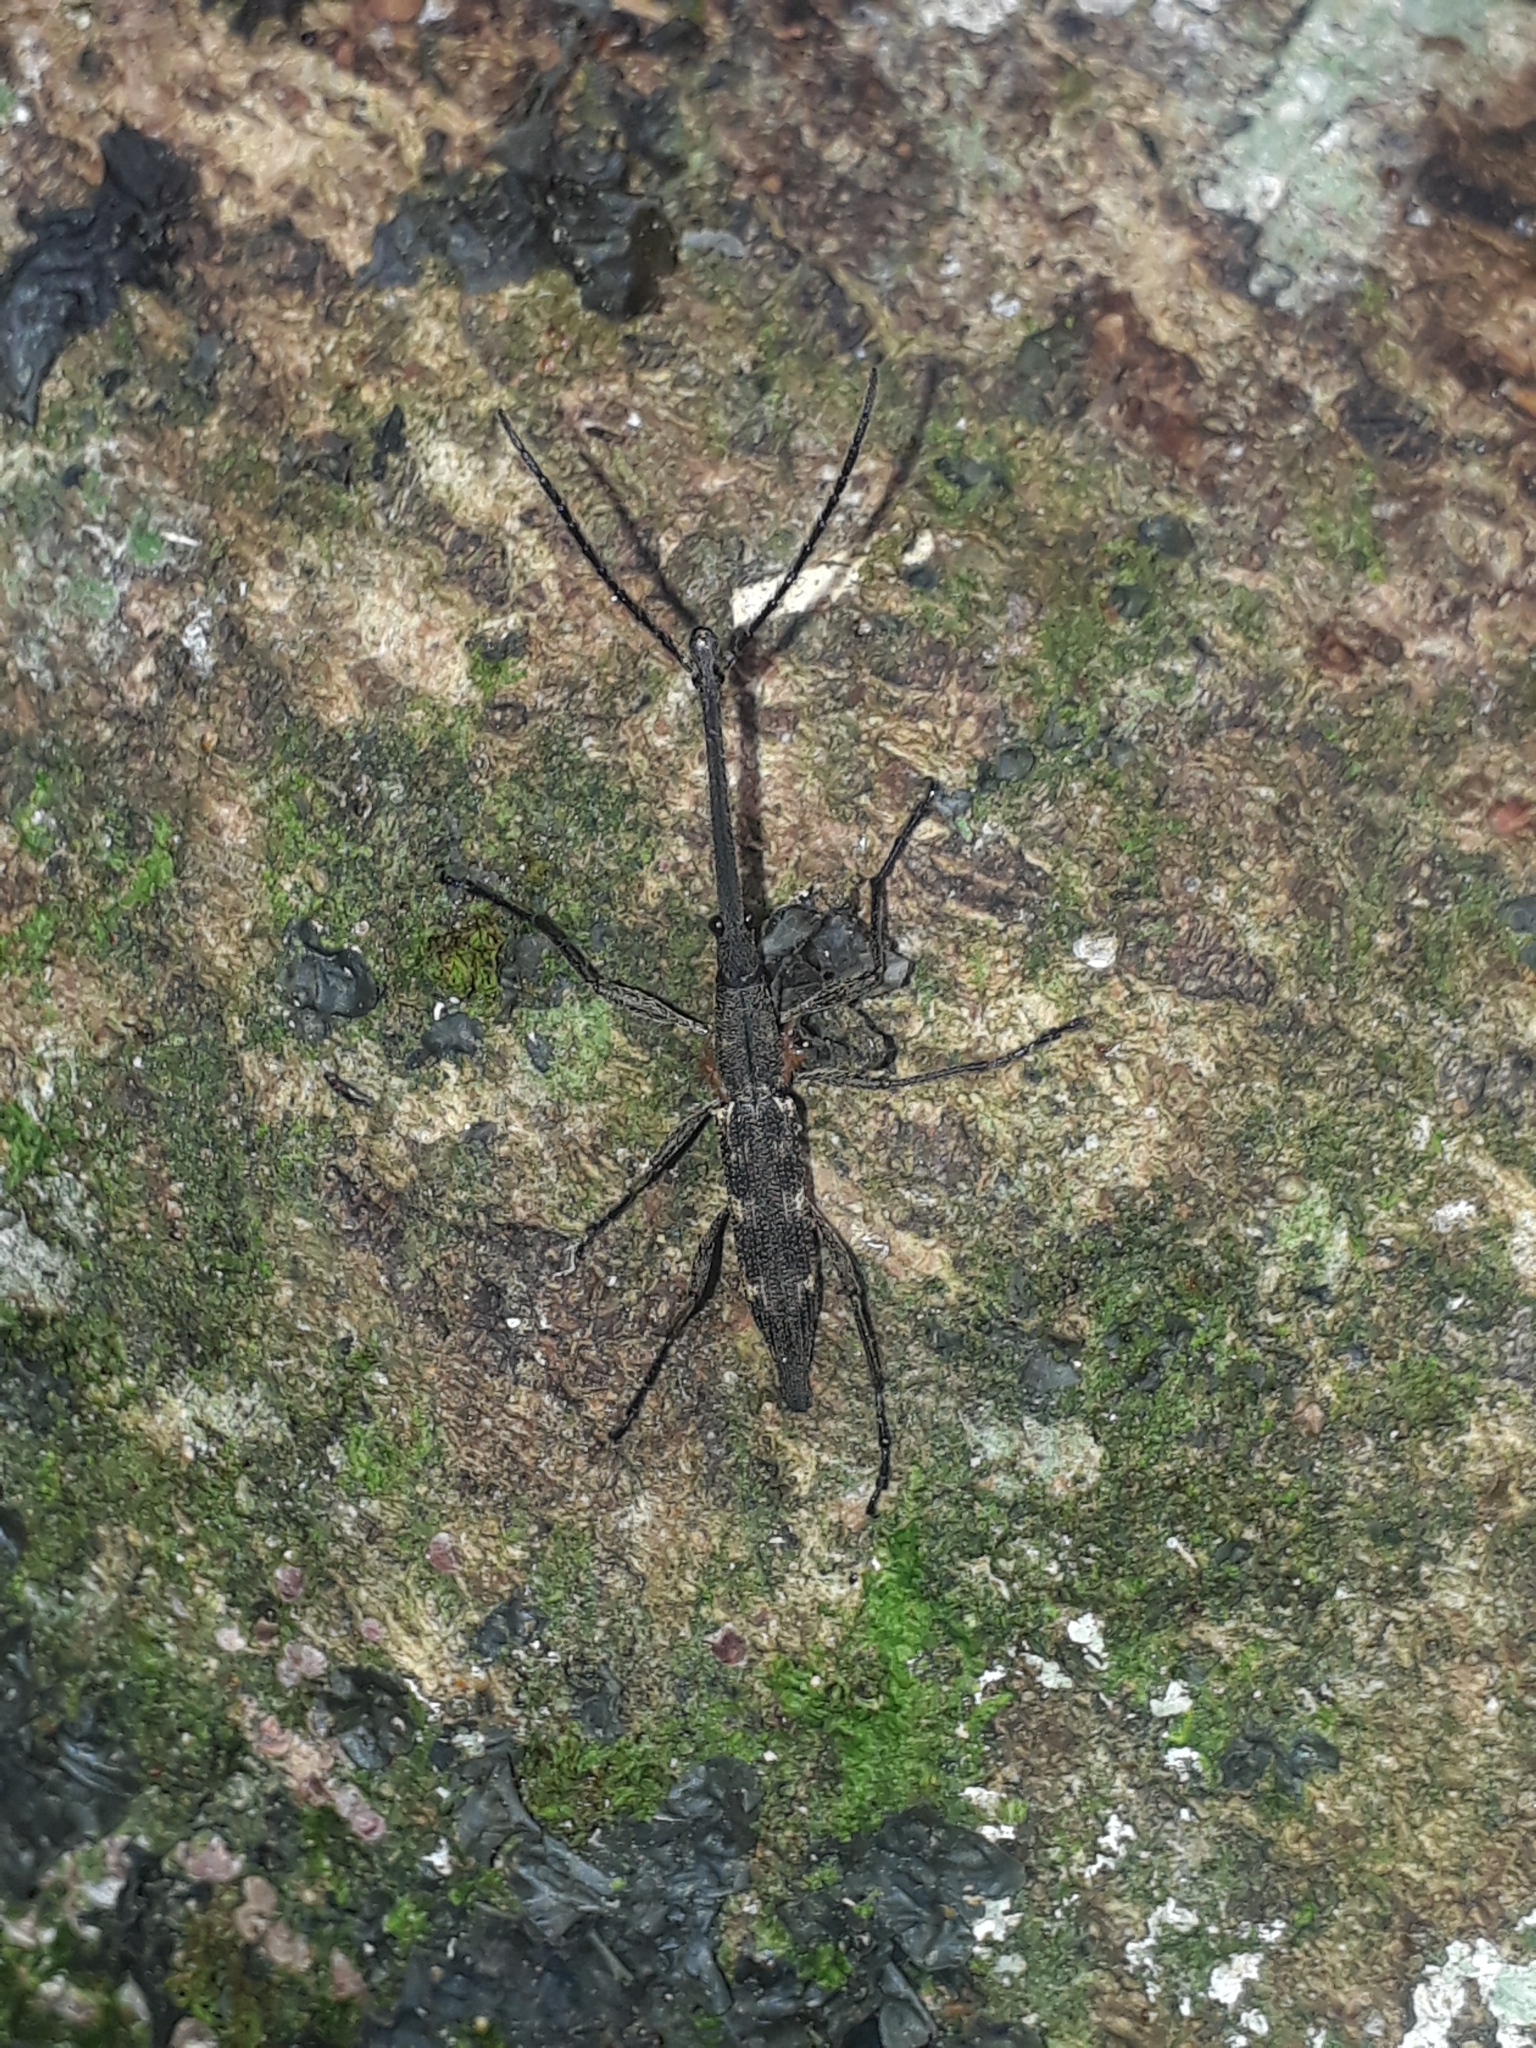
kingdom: Animalia
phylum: Arthropoda
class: Insecta
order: Coleoptera
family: Brentidae
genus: Lasiorhynchus
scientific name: Lasiorhynchus barbicornis
